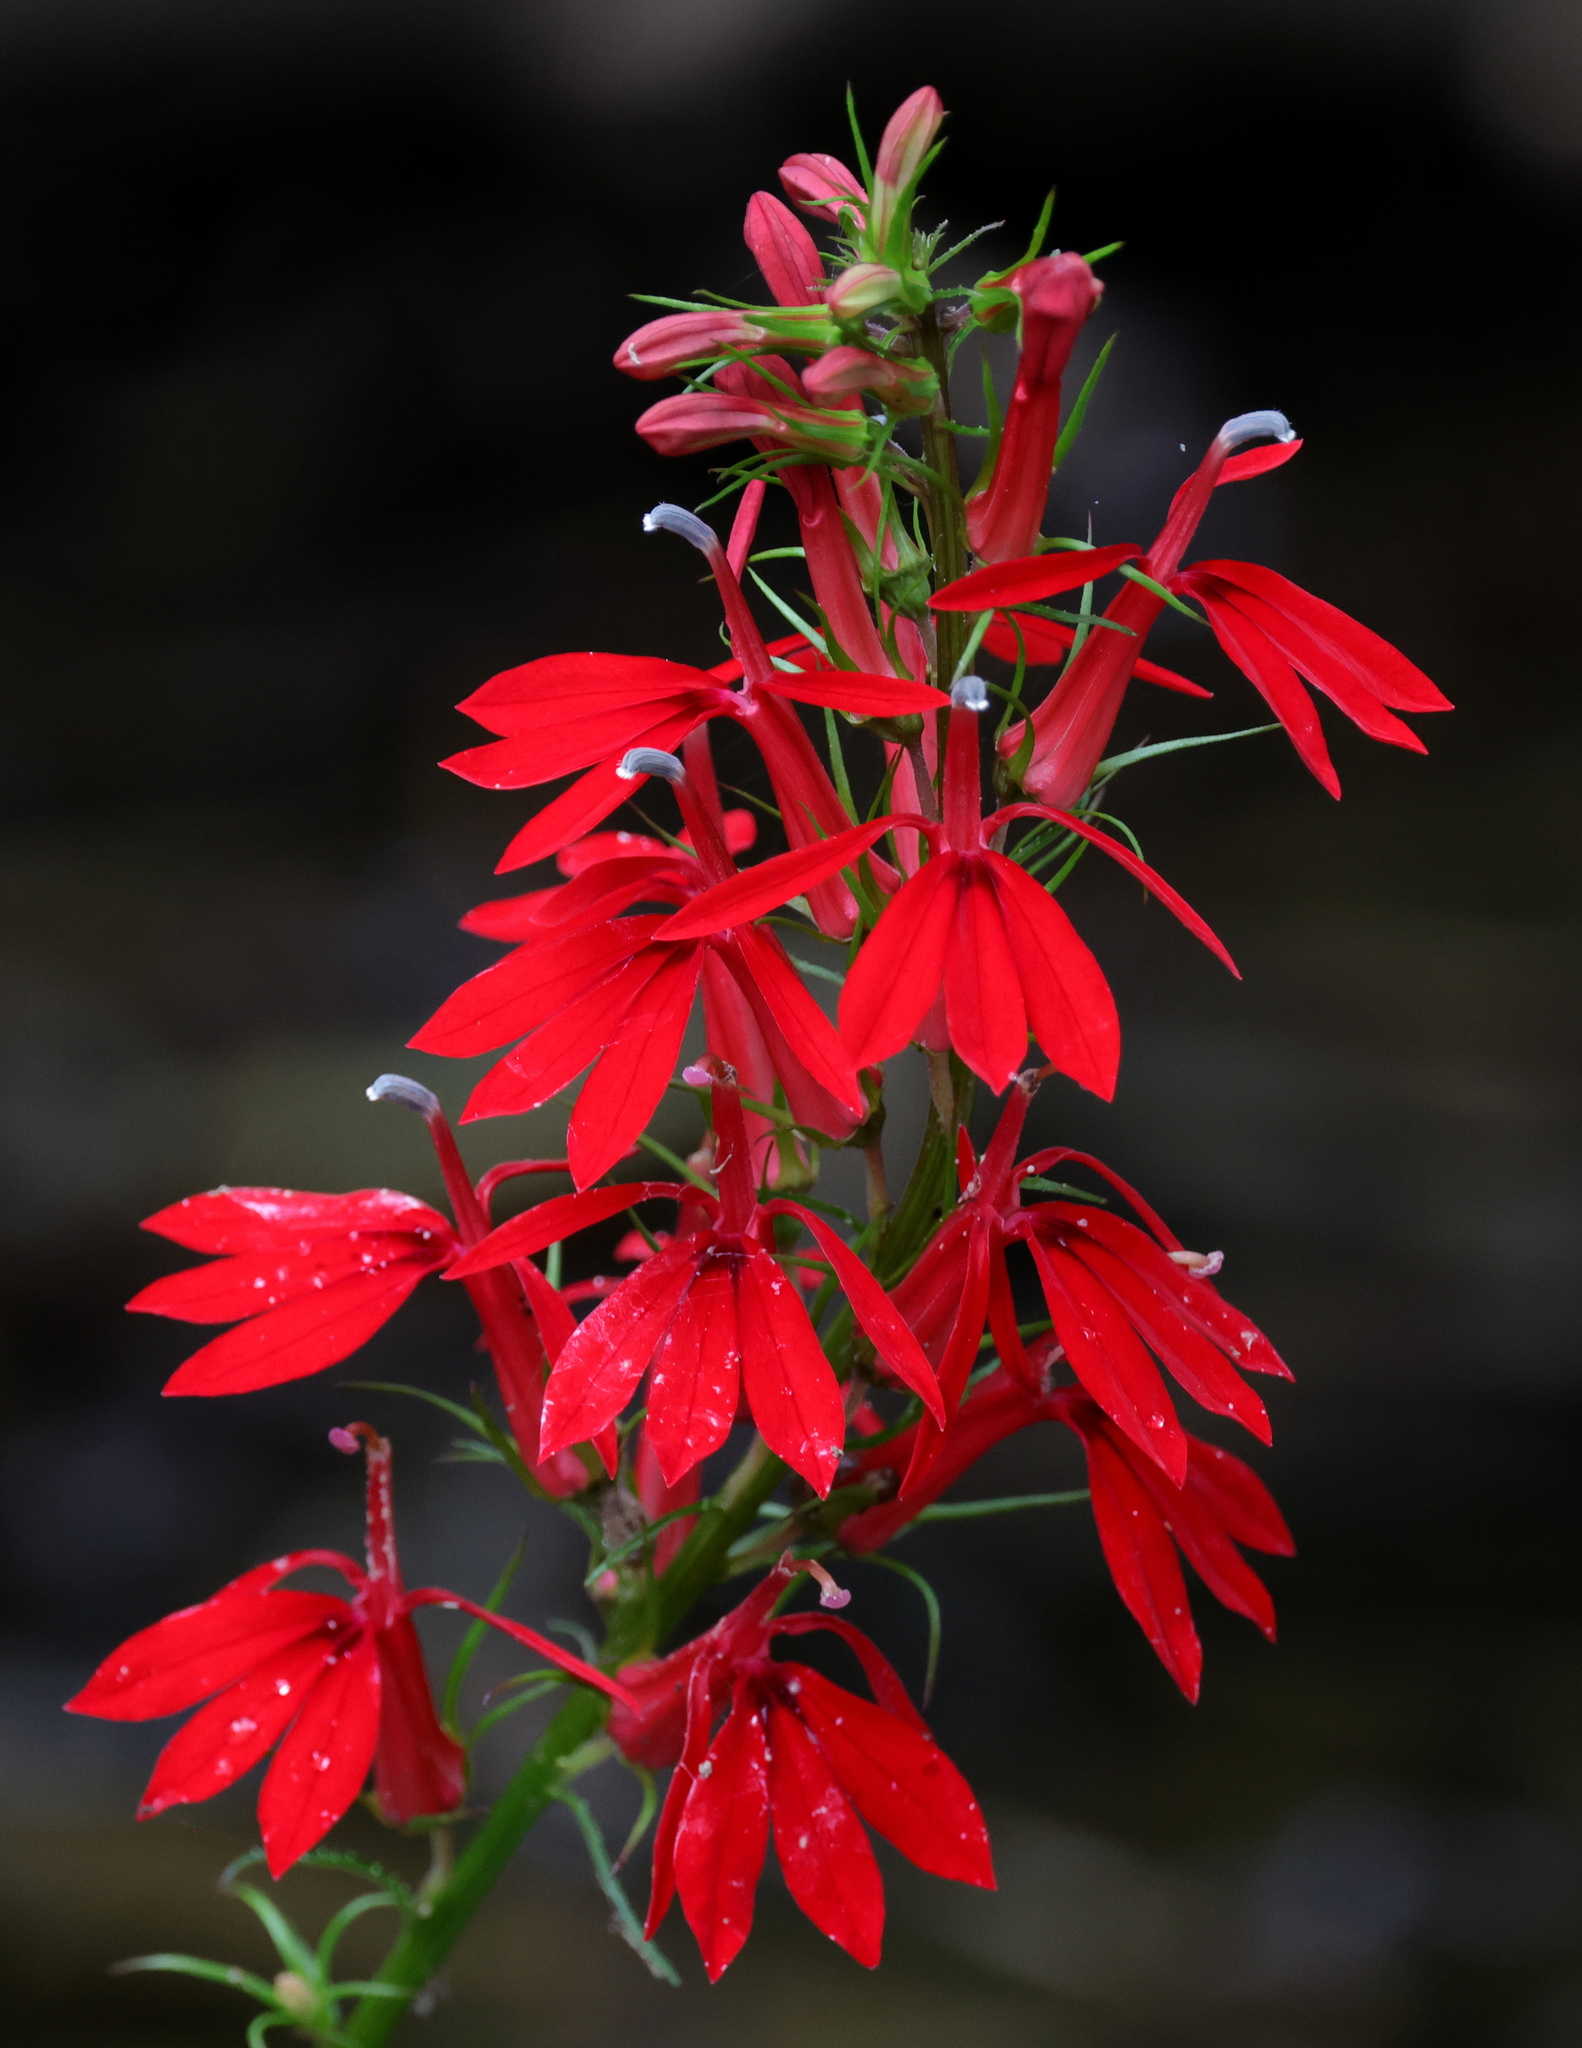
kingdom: Plantae
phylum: Tracheophyta
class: Magnoliopsida
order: Asterales
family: Campanulaceae
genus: Lobelia
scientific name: Lobelia cardinalis
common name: Cardinal flower
